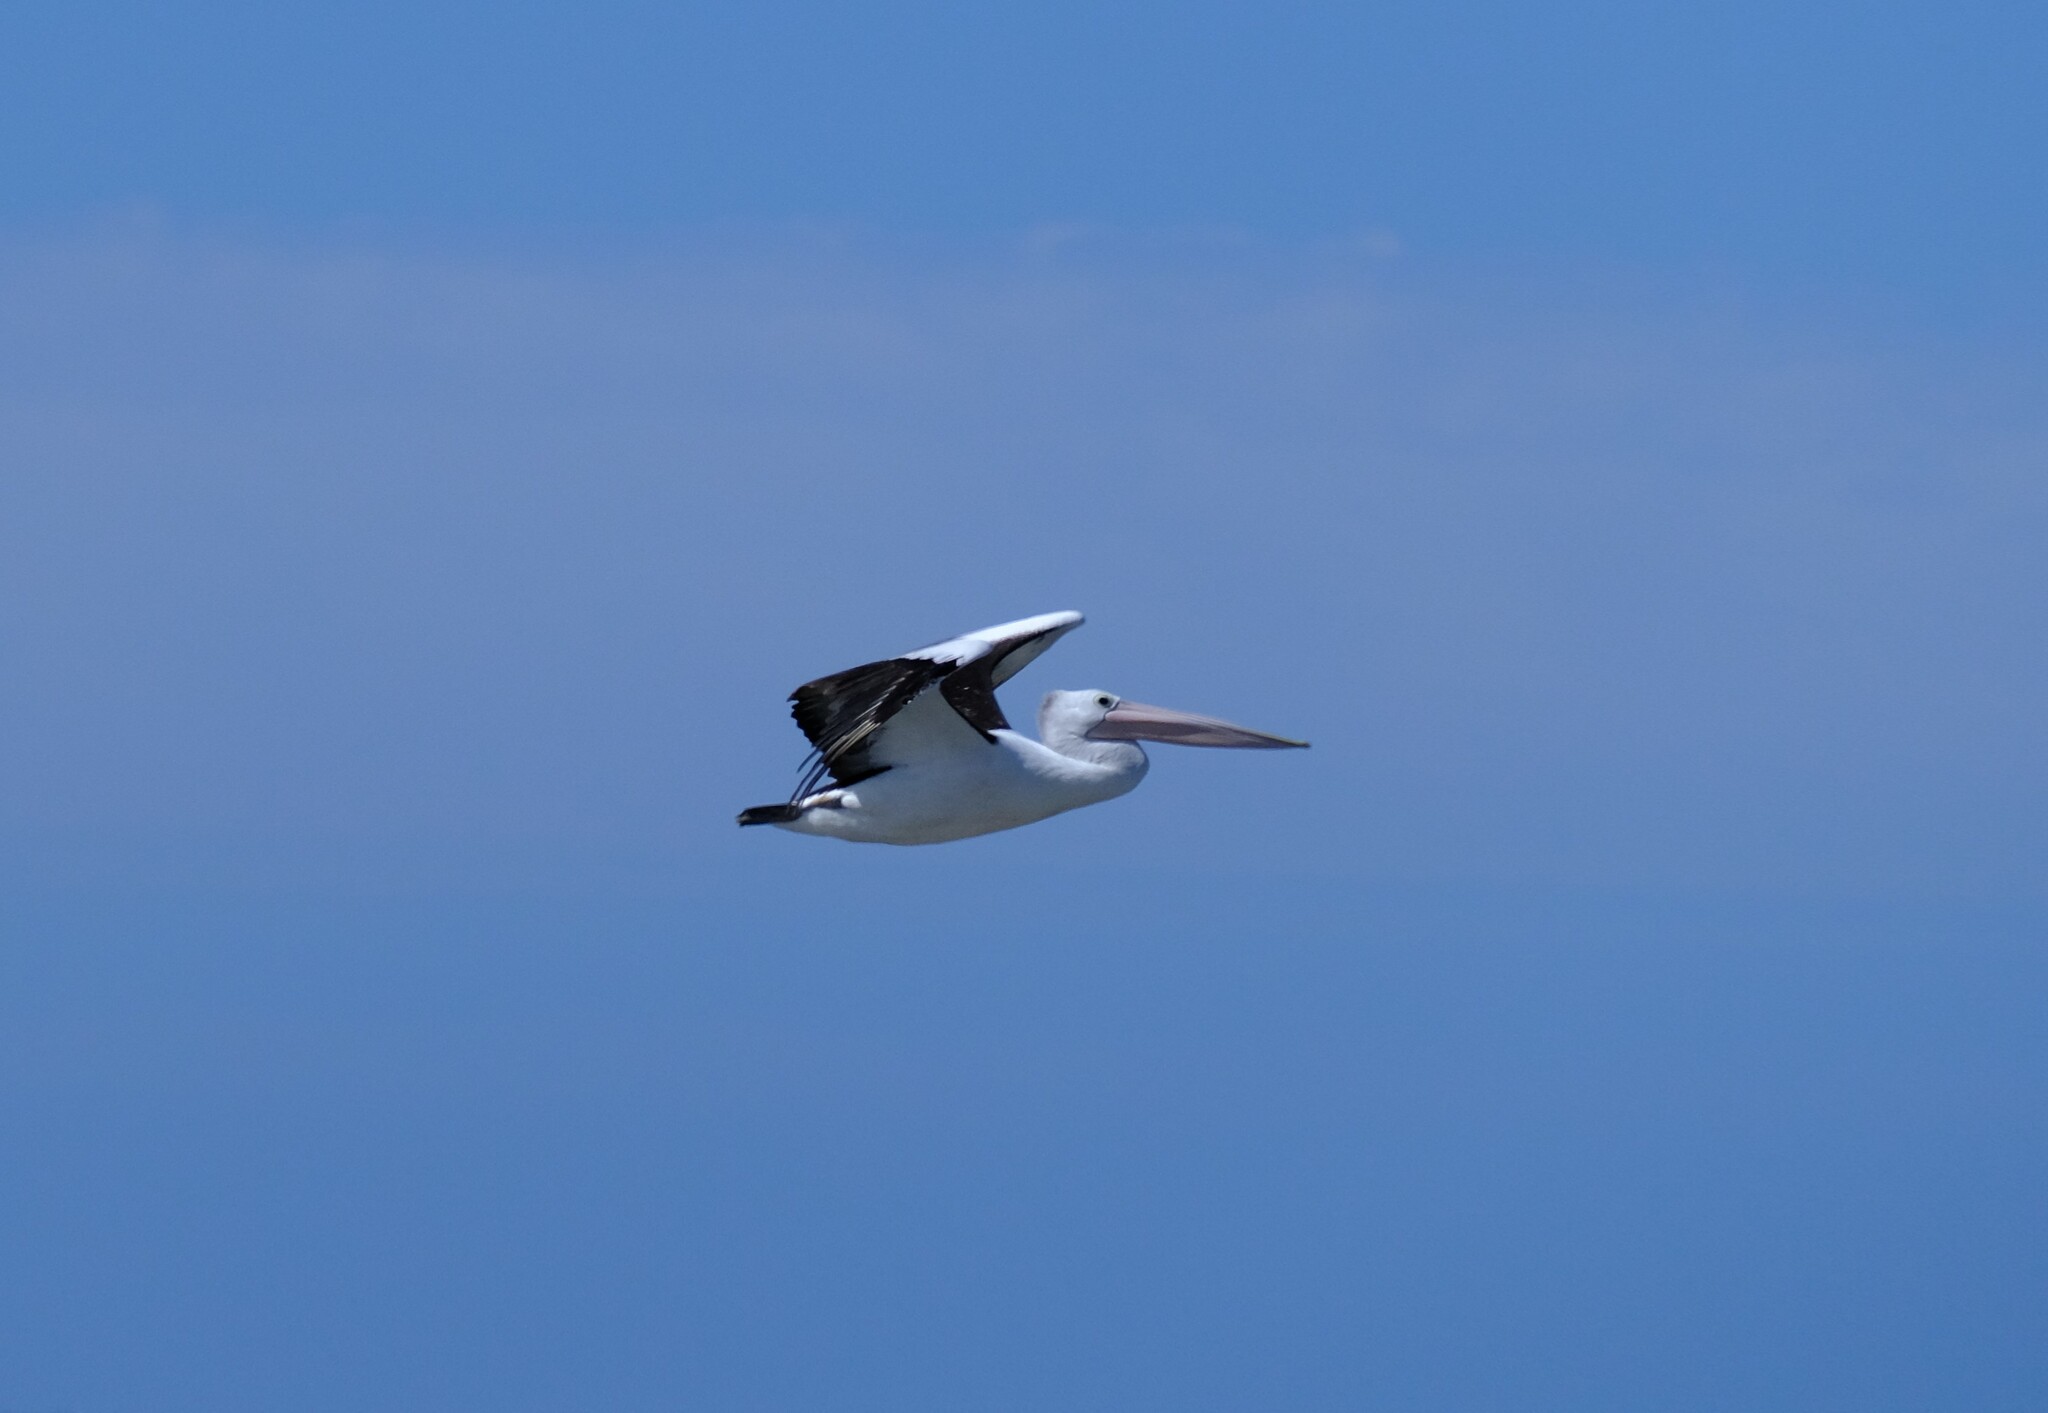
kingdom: Animalia
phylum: Chordata
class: Aves
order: Pelecaniformes
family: Pelecanidae
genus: Pelecanus
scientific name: Pelecanus conspicillatus
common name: Australian pelican
